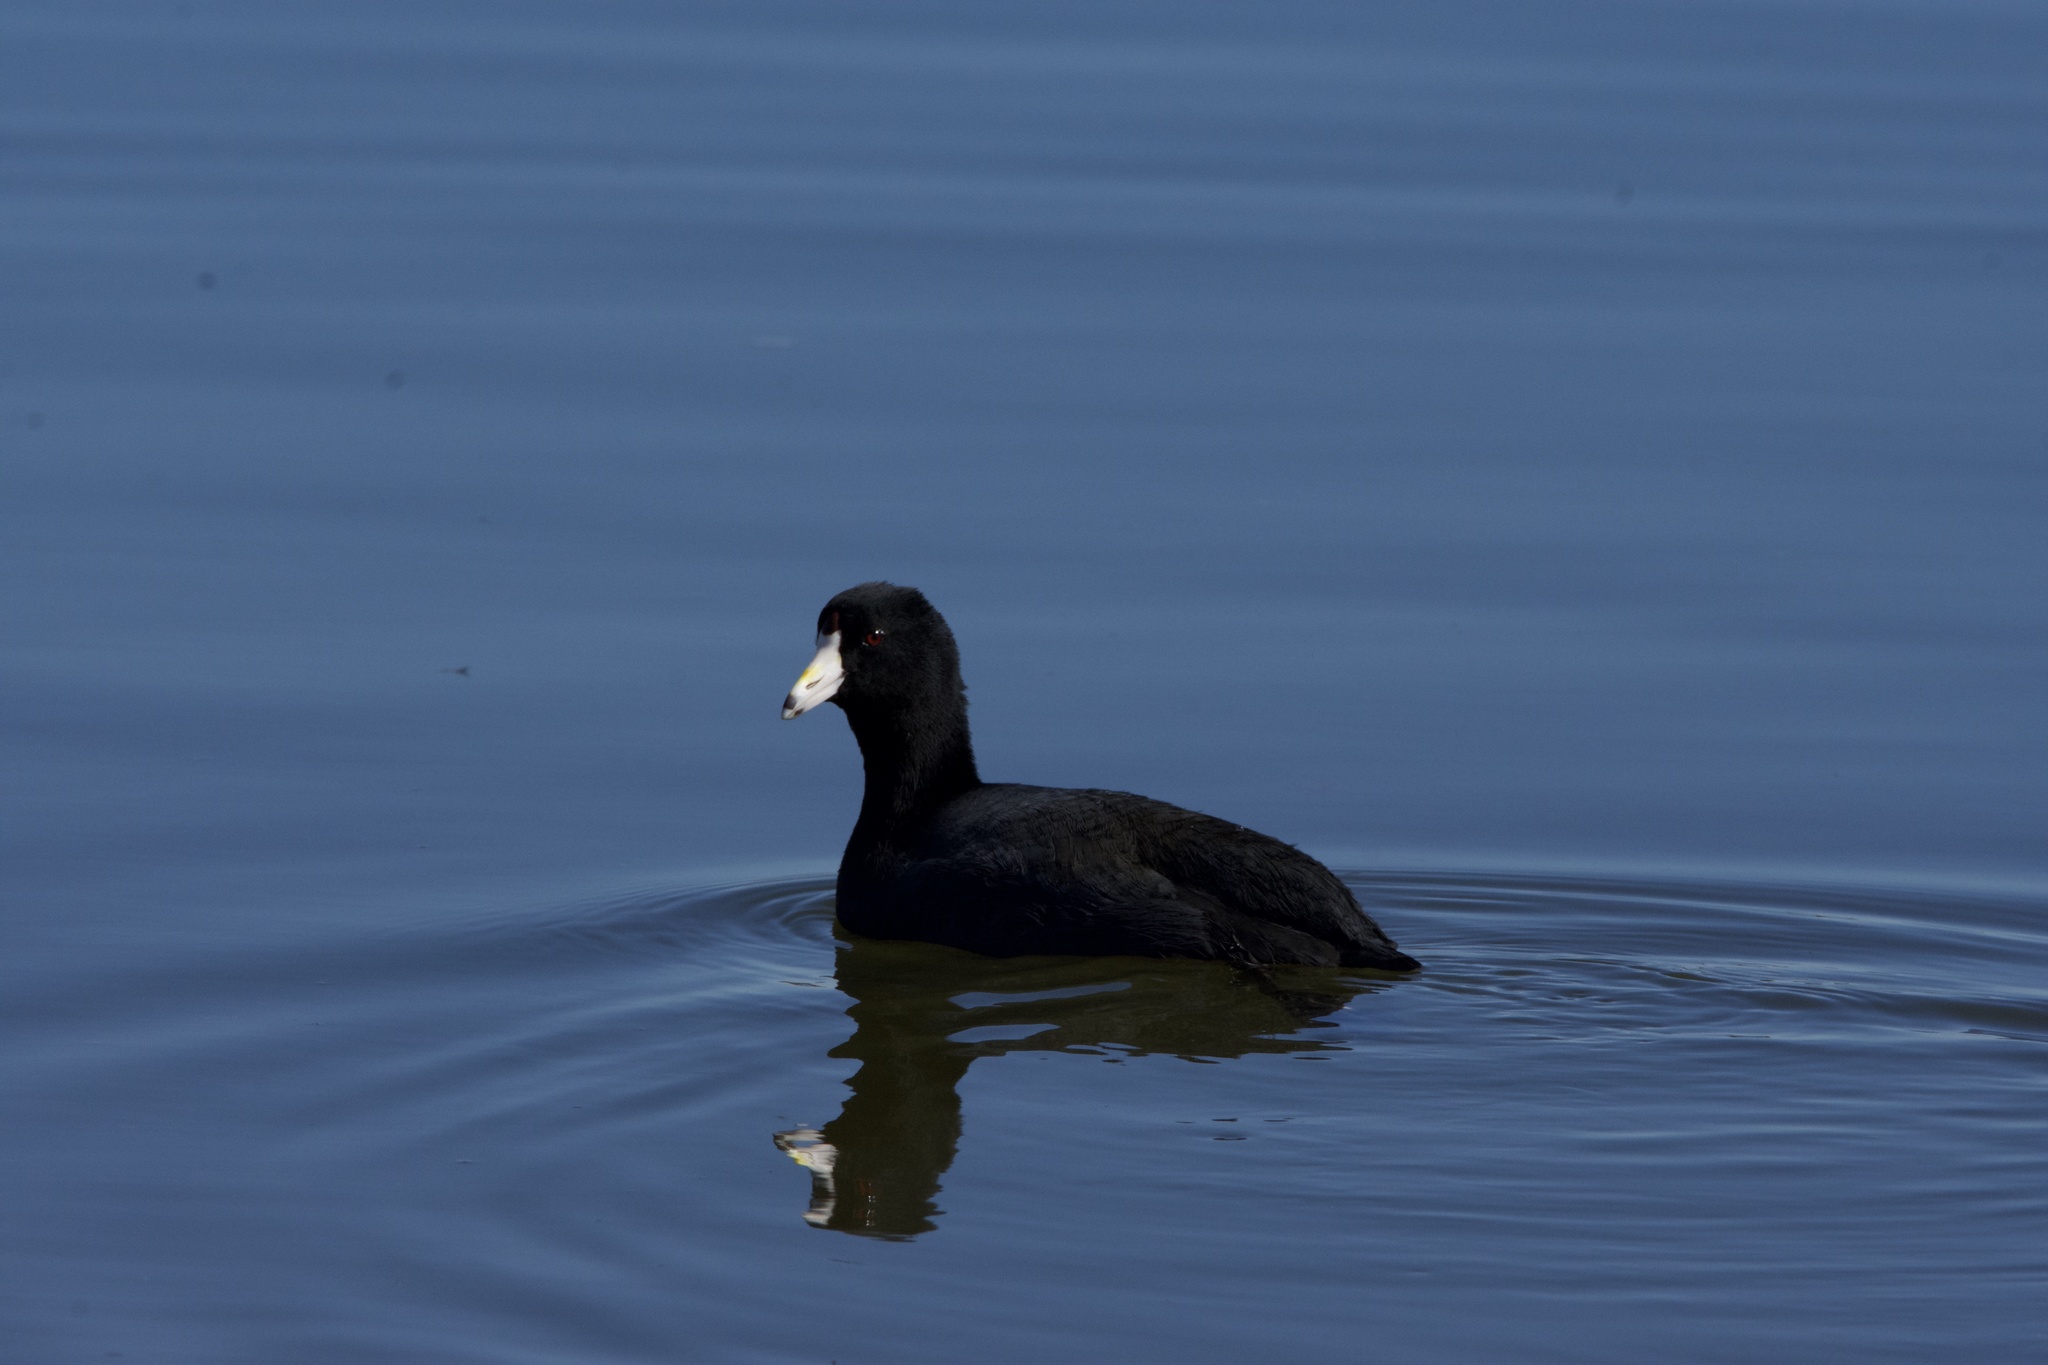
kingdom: Animalia
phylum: Chordata
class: Aves
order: Gruiformes
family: Rallidae
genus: Fulica
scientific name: Fulica americana
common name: American coot
